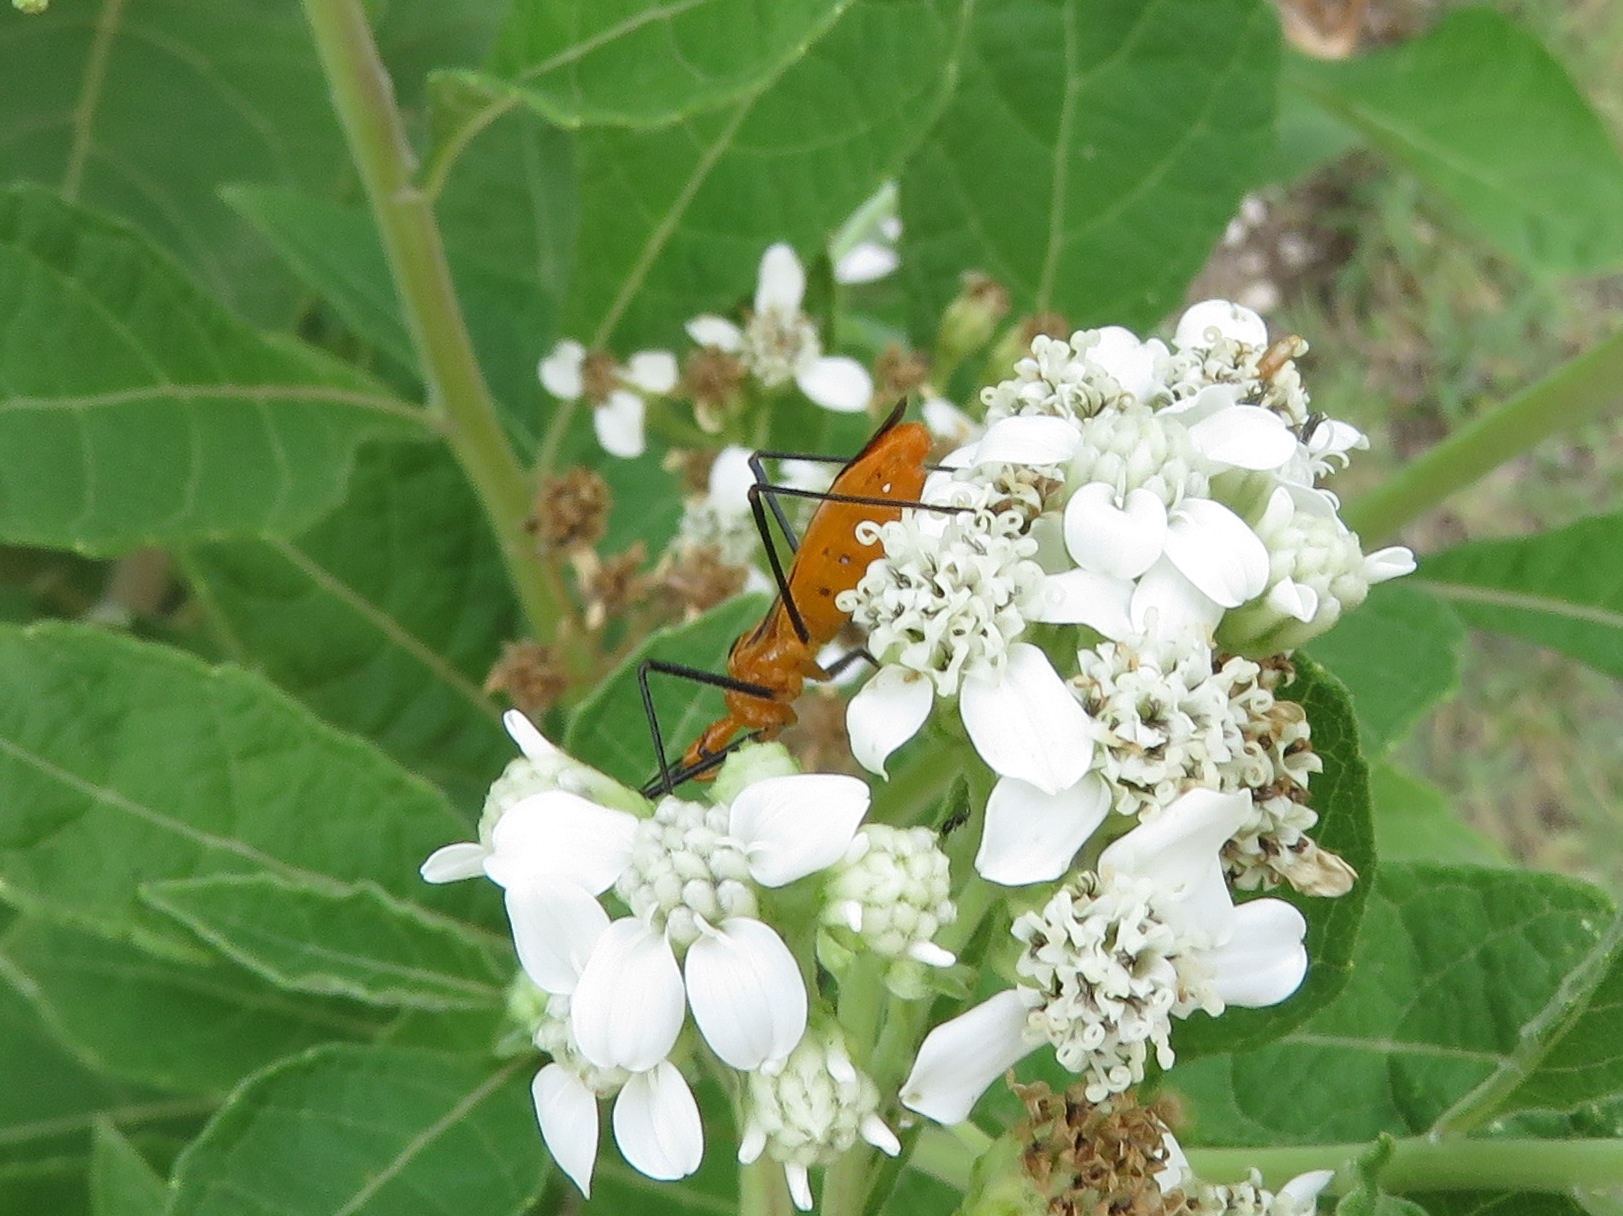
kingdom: Animalia
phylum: Arthropoda
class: Insecta
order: Hemiptera
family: Reduviidae
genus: Zelus
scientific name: Zelus longipes
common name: Milkweed assassin bug
